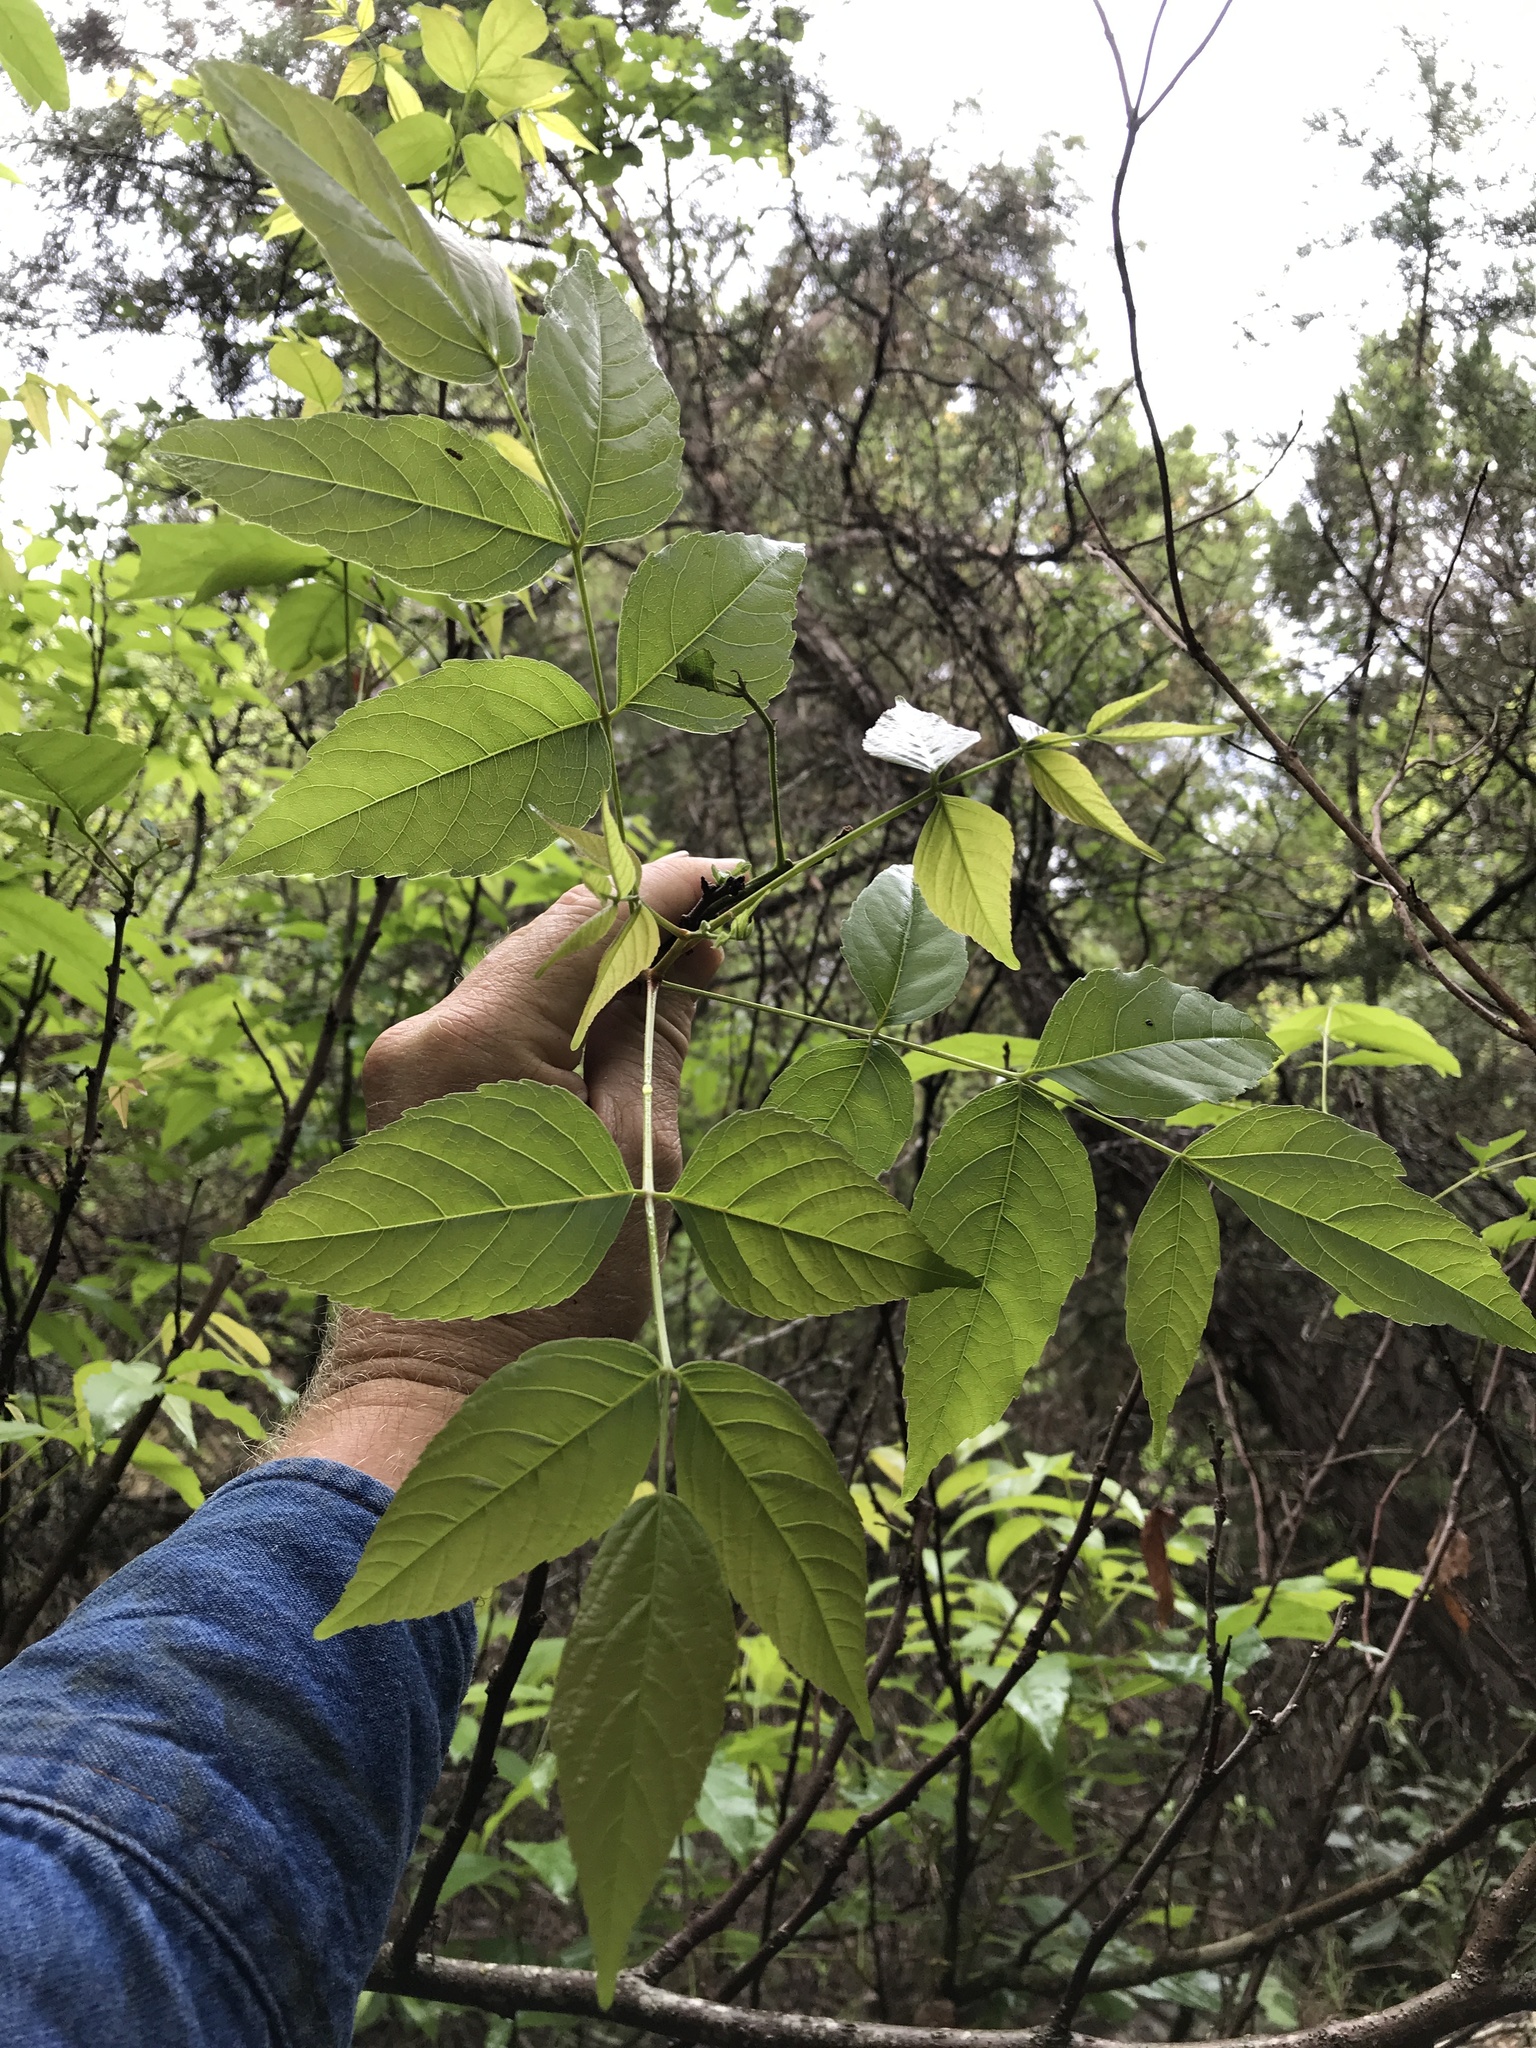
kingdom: Plantae
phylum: Tracheophyta
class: Magnoliopsida
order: Sapindales
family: Sapindaceae
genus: Ungnadia
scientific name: Ungnadia speciosa
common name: Texas-buckeye
